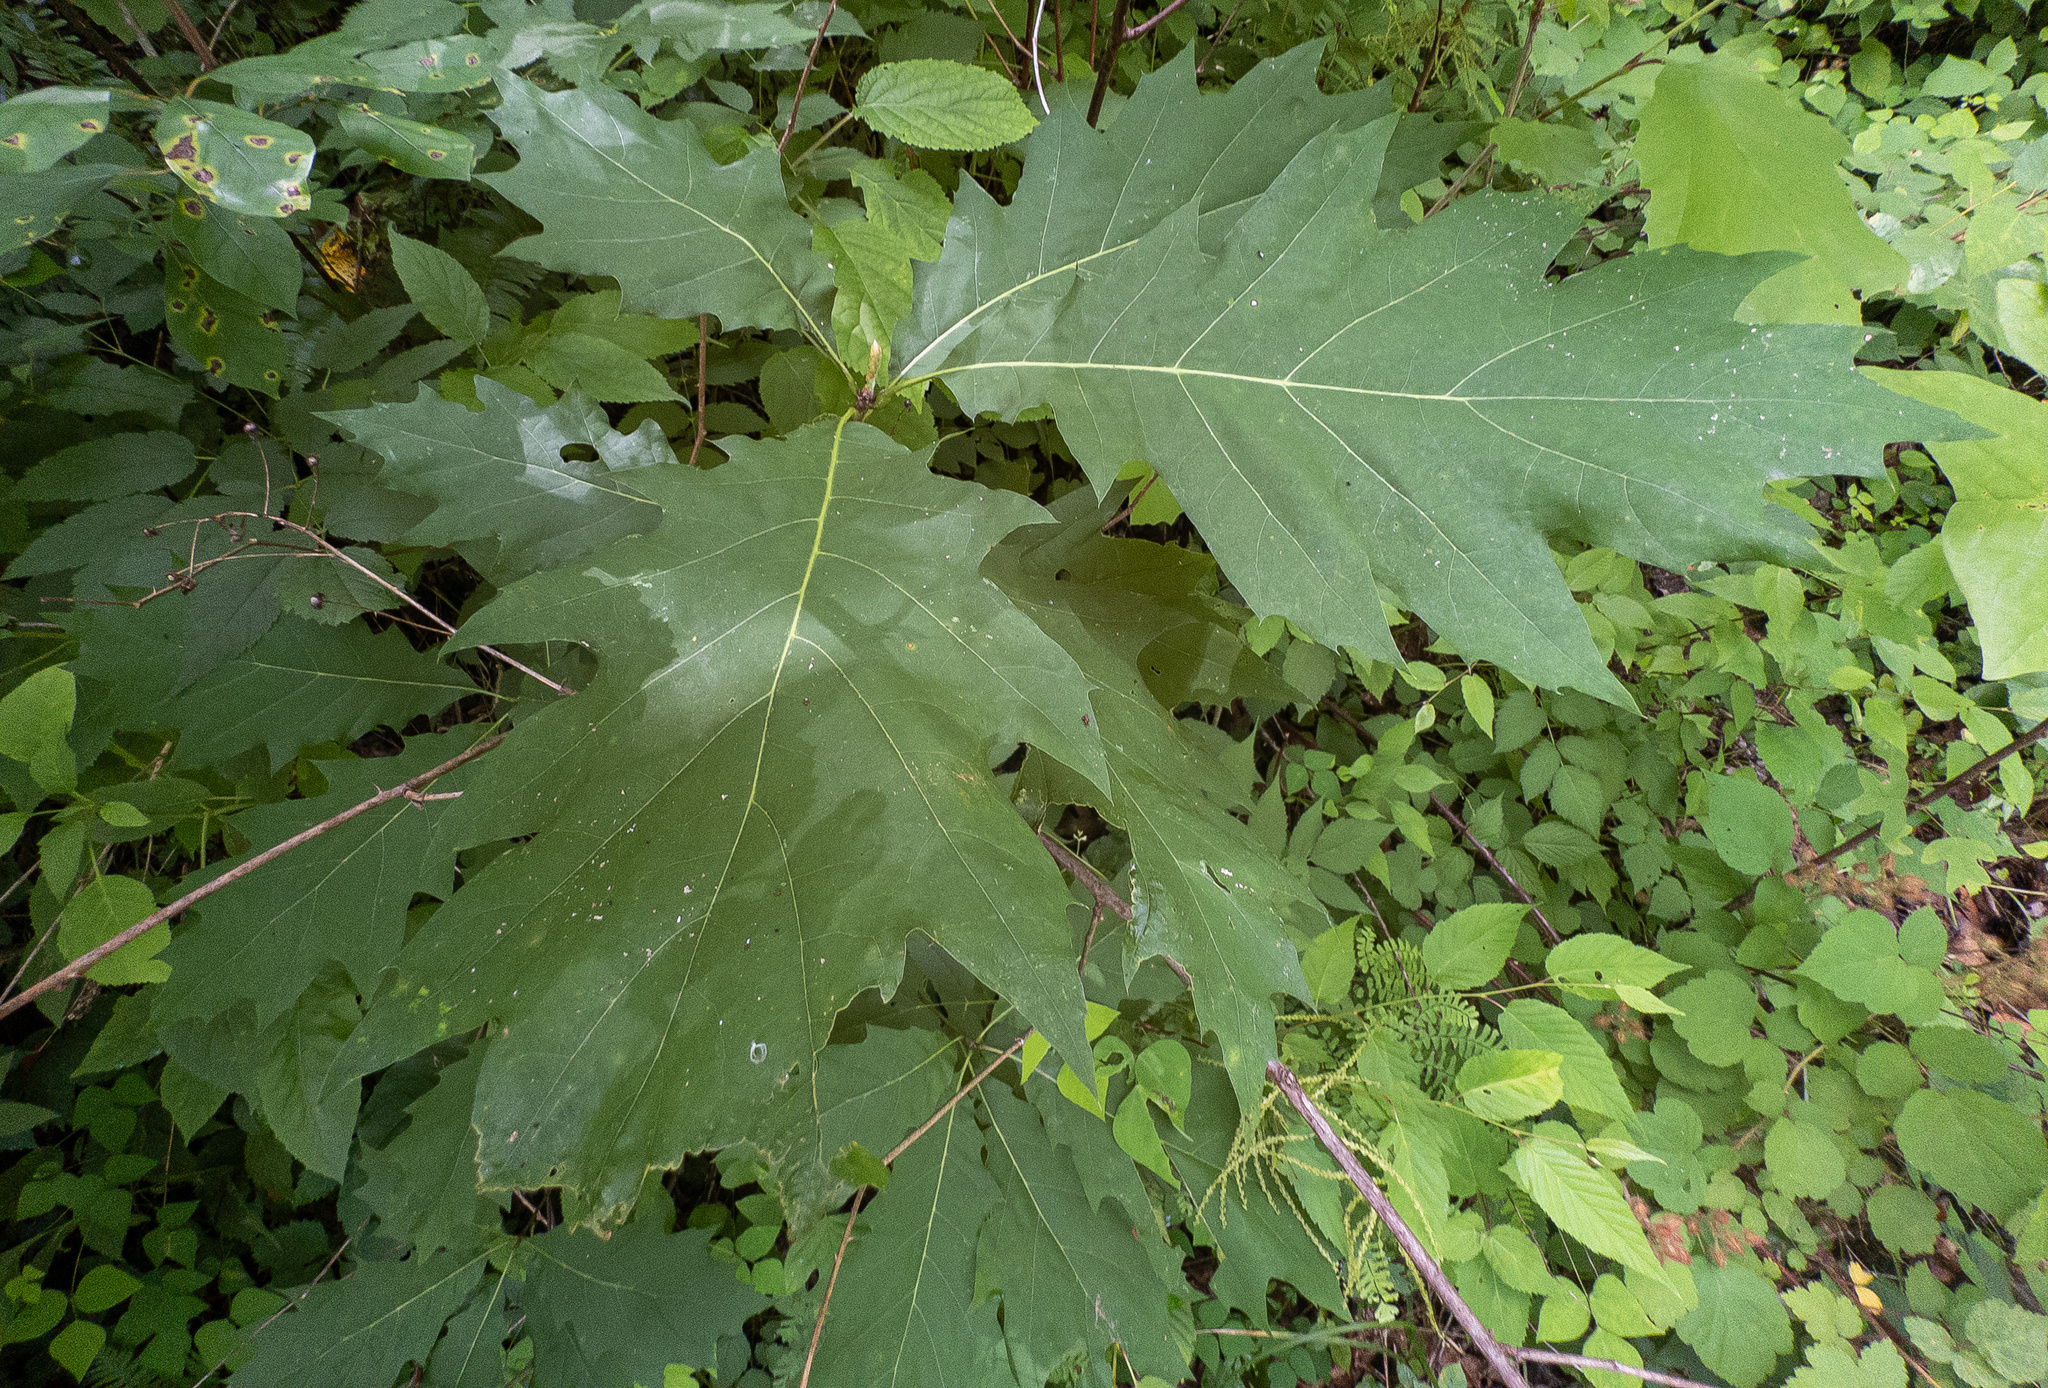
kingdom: Plantae
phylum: Tracheophyta
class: Magnoliopsida
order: Fagales
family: Fagaceae
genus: Quercus
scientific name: Quercus rubra
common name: Red oak
